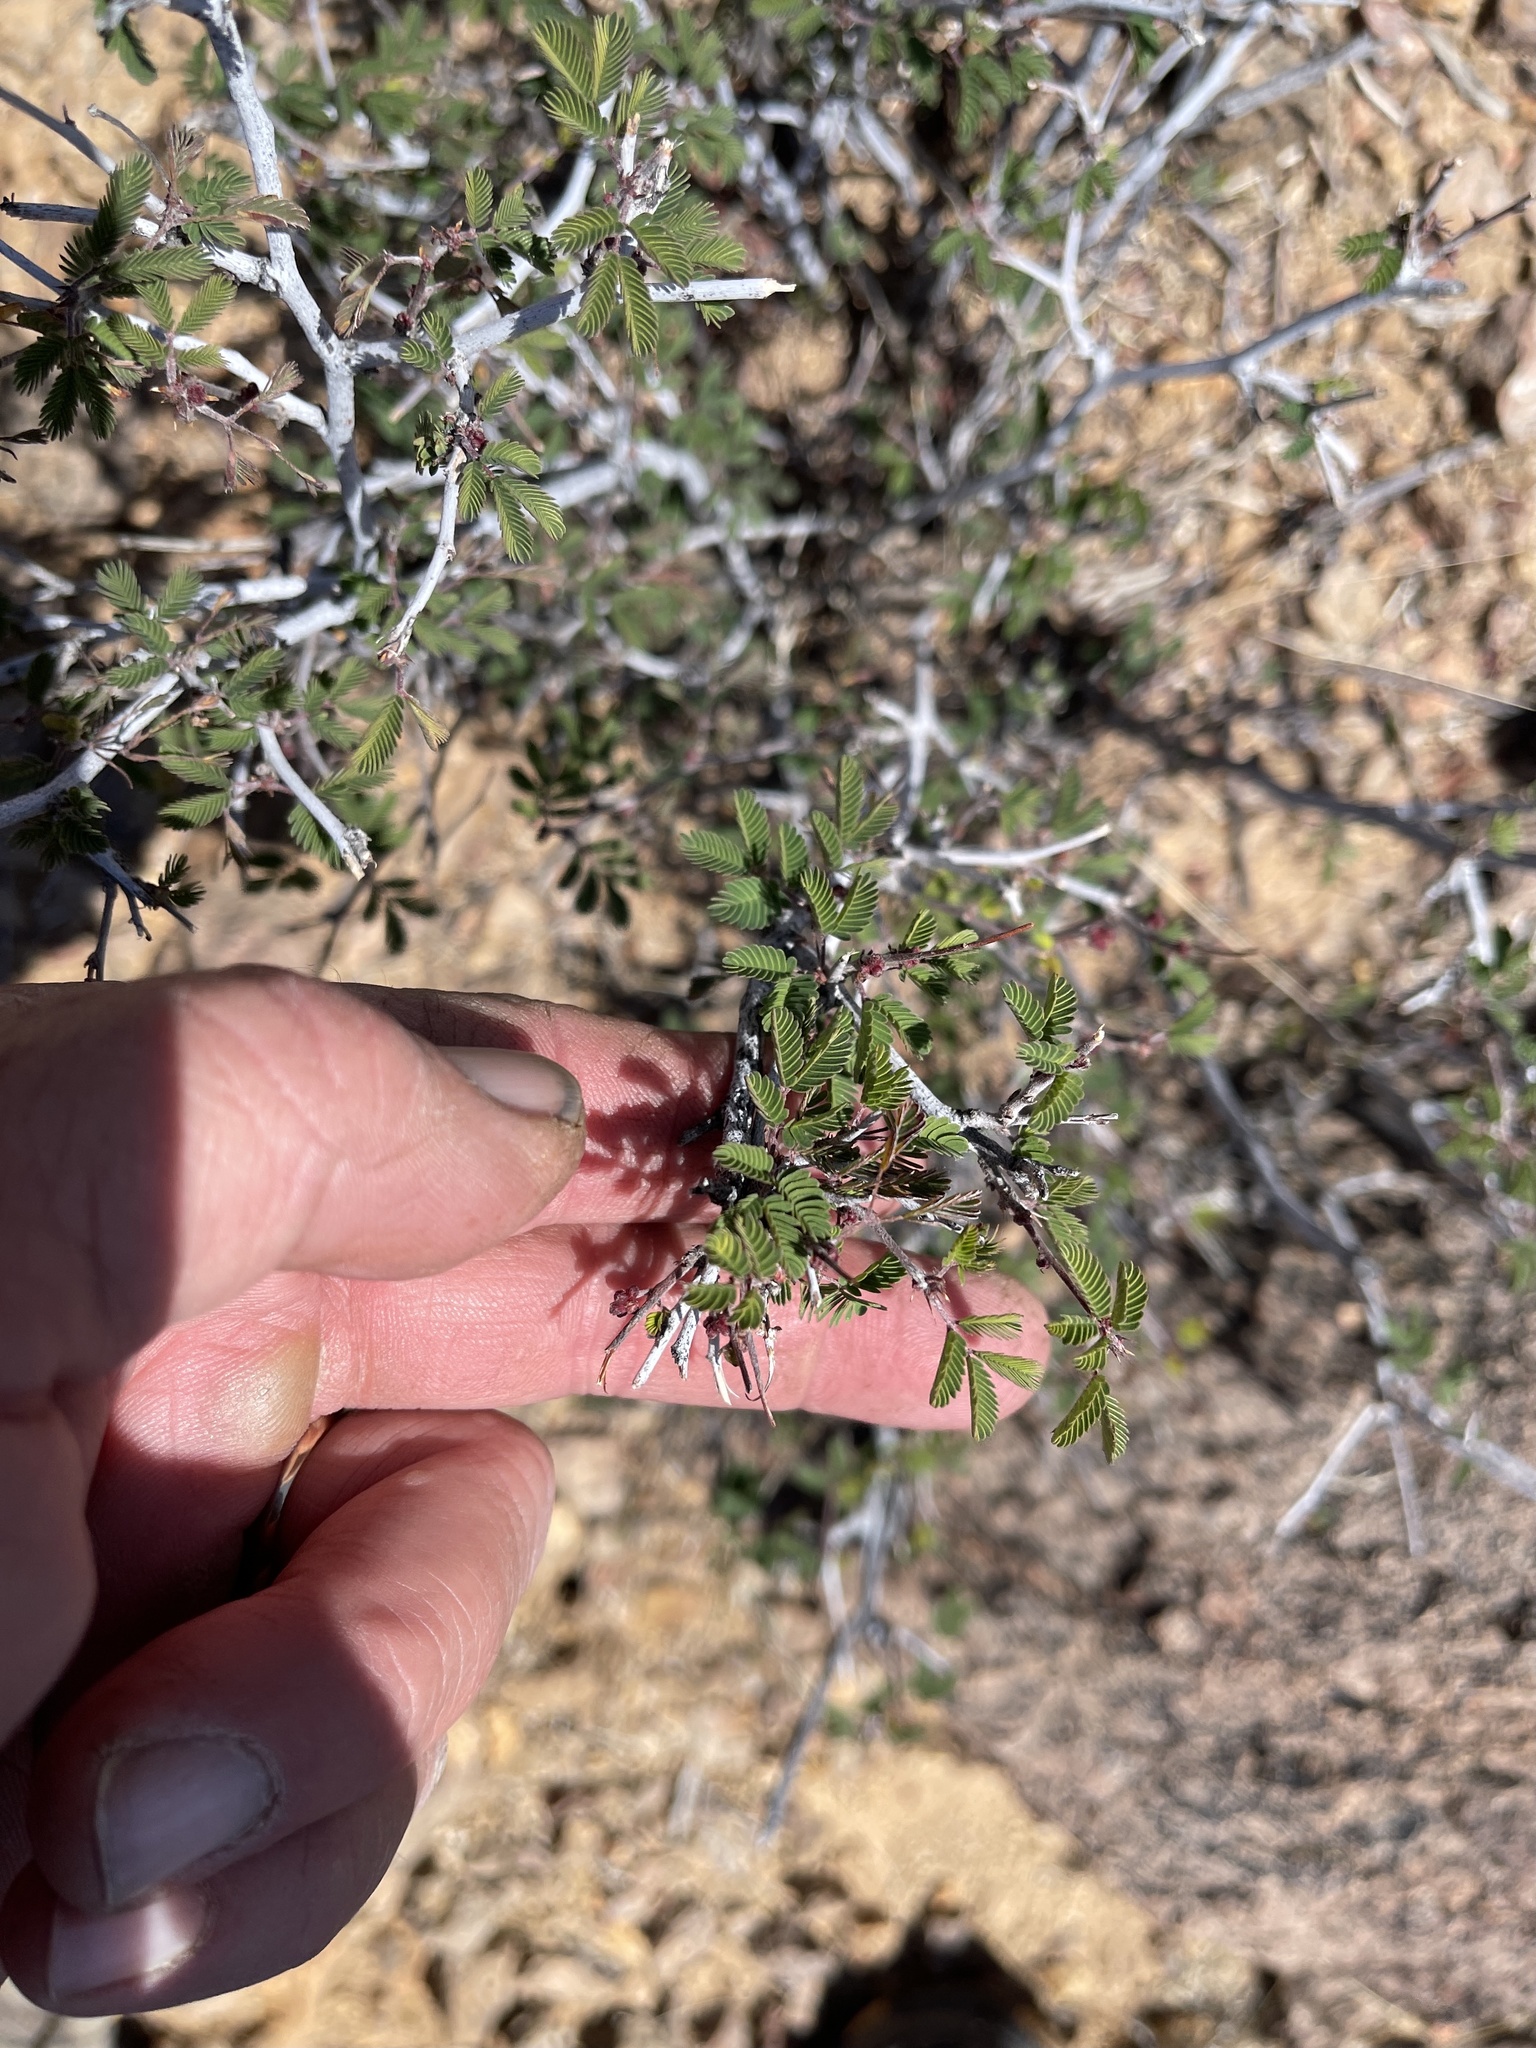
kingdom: Plantae
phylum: Tracheophyta
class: Magnoliopsida
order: Fabales
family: Fabaceae
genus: Calliandra
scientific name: Calliandra eriophylla
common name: Fairy-duster
